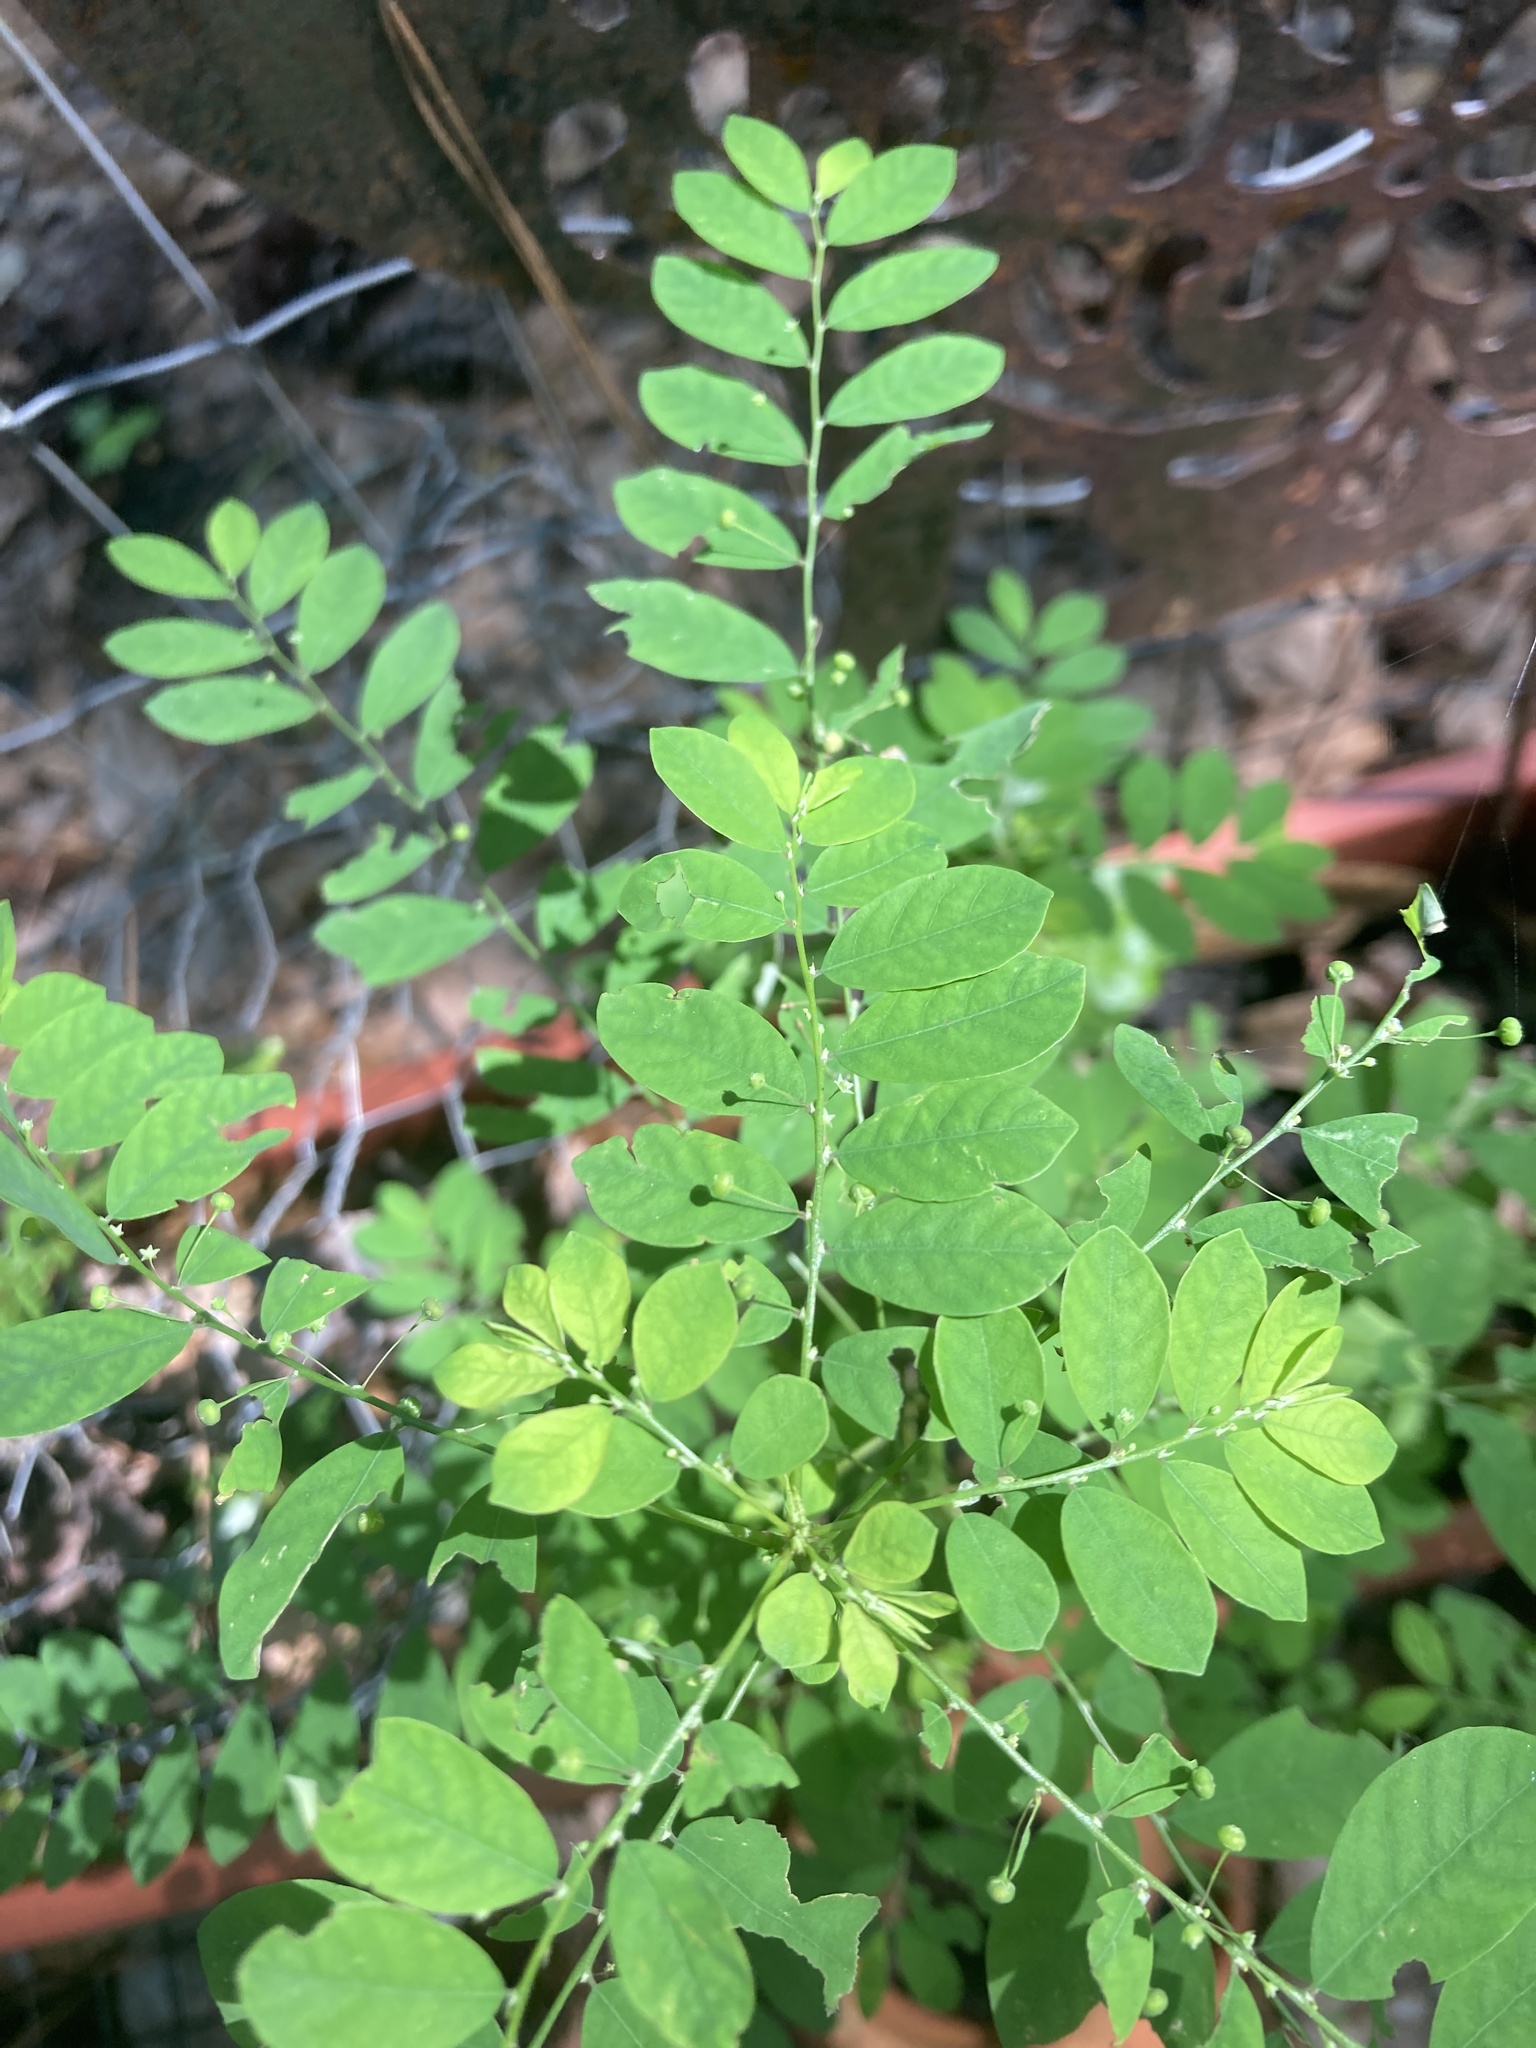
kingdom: Plantae
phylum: Tracheophyta
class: Magnoliopsida
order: Malpighiales
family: Phyllanthaceae
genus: Phyllanthus
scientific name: Phyllanthus tenellus
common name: Mascarene island leaf-flower
